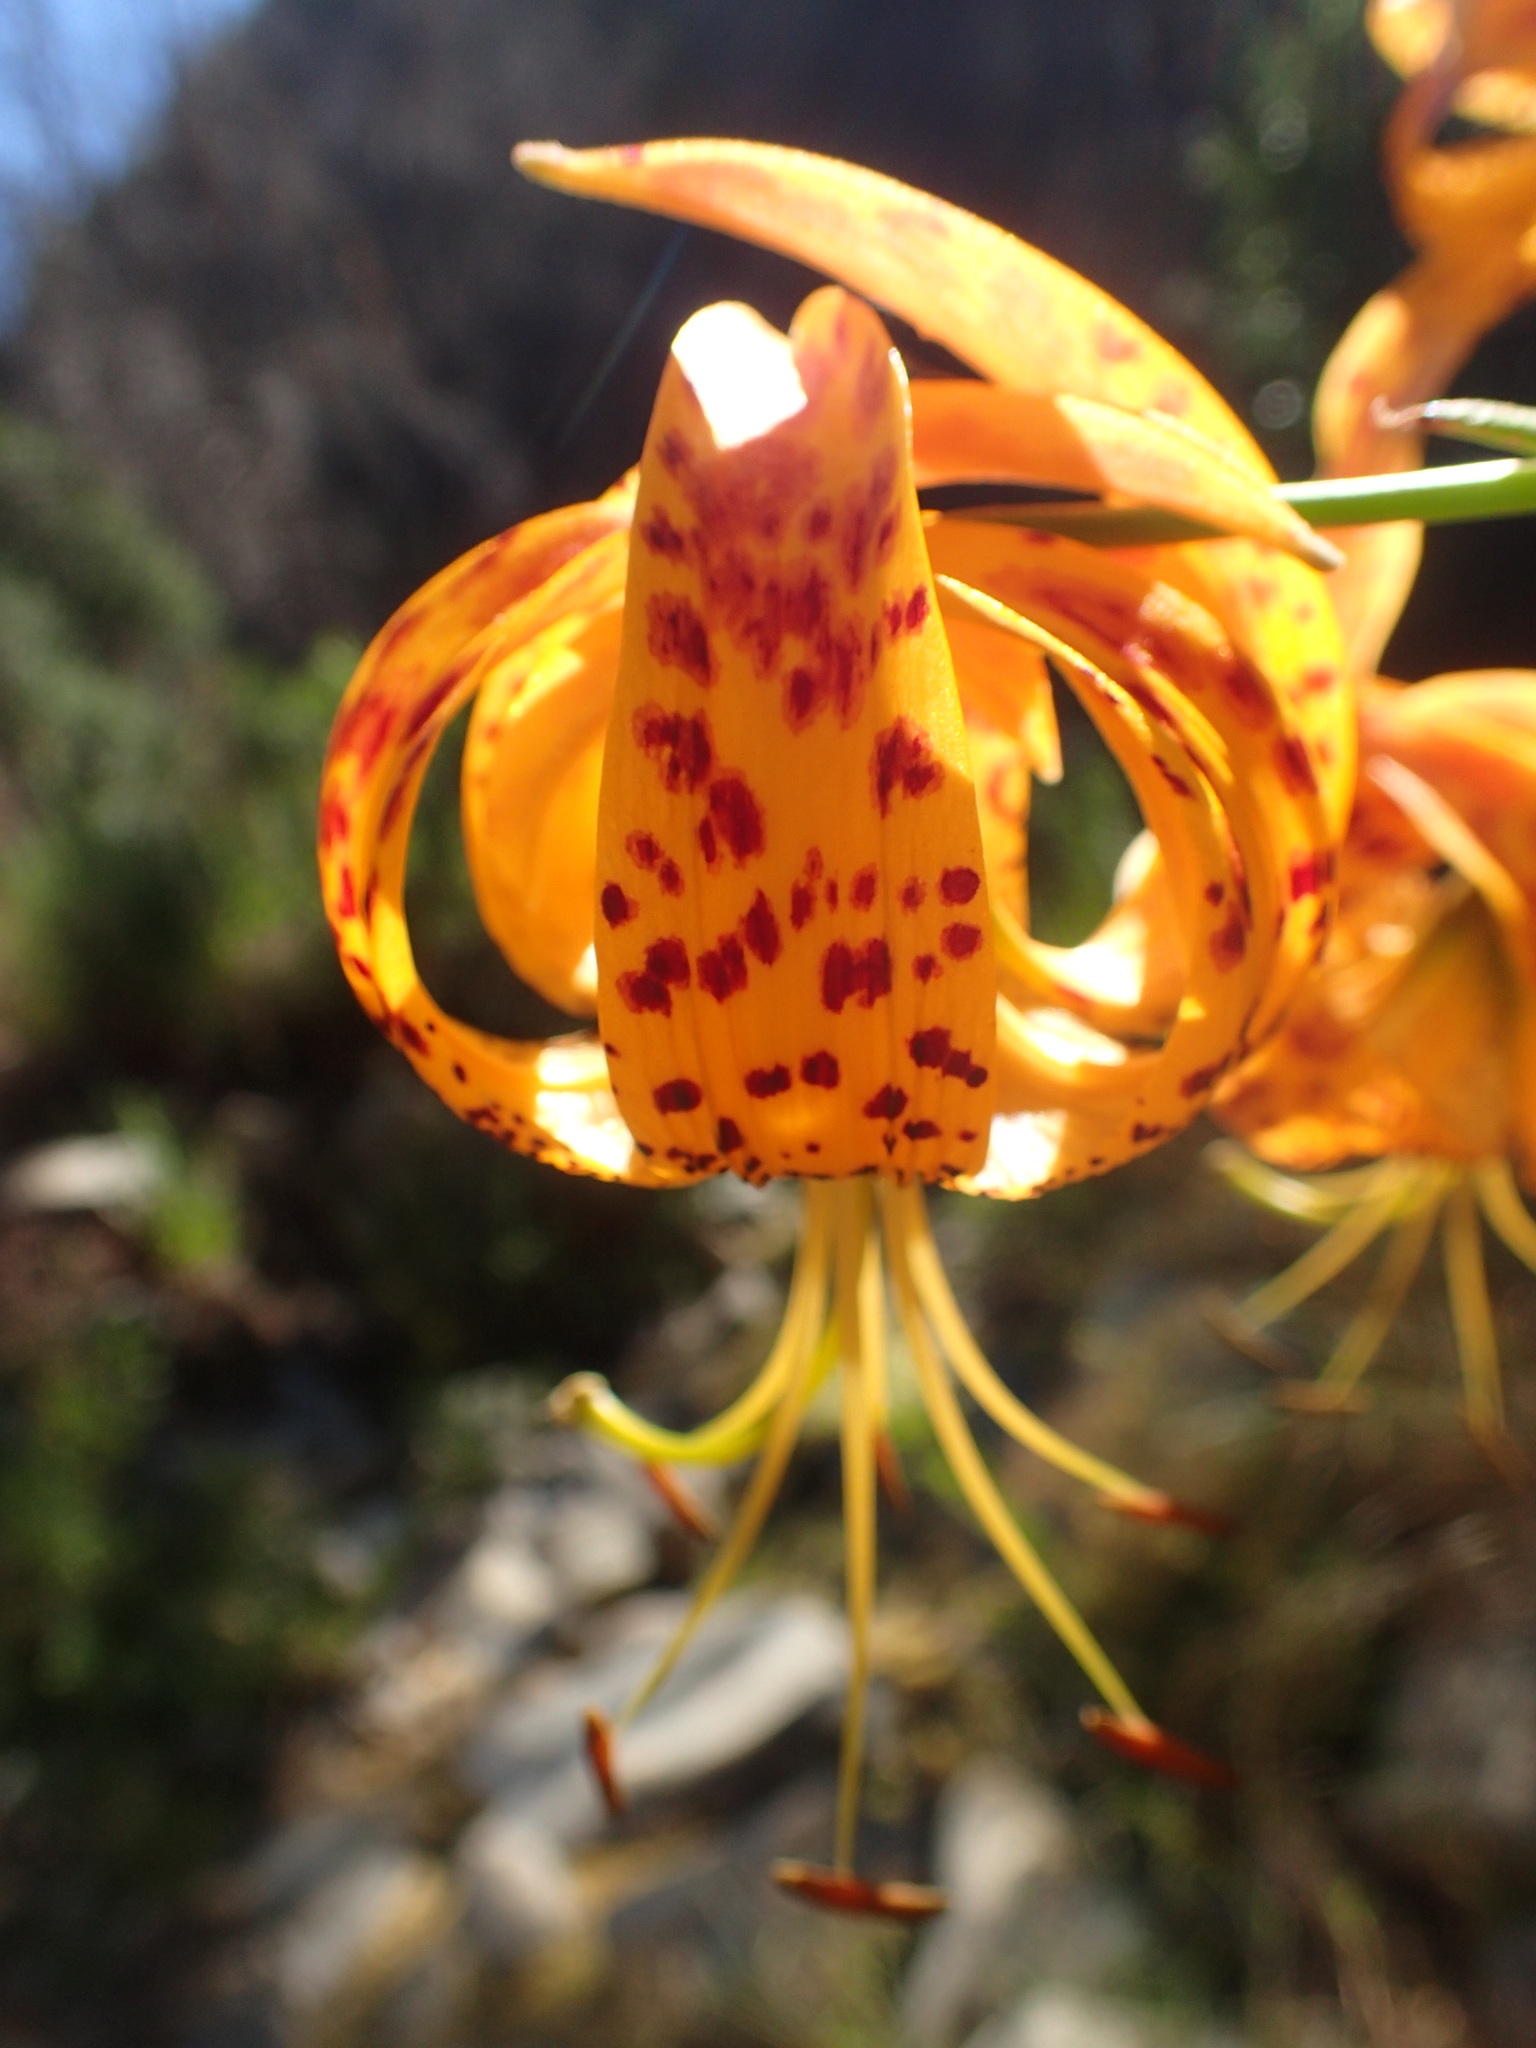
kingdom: Plantae
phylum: Tracheophyta
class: Liliopsida
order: Liliales
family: Liliaceae
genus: Lilium
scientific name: Lilium humboldtii
